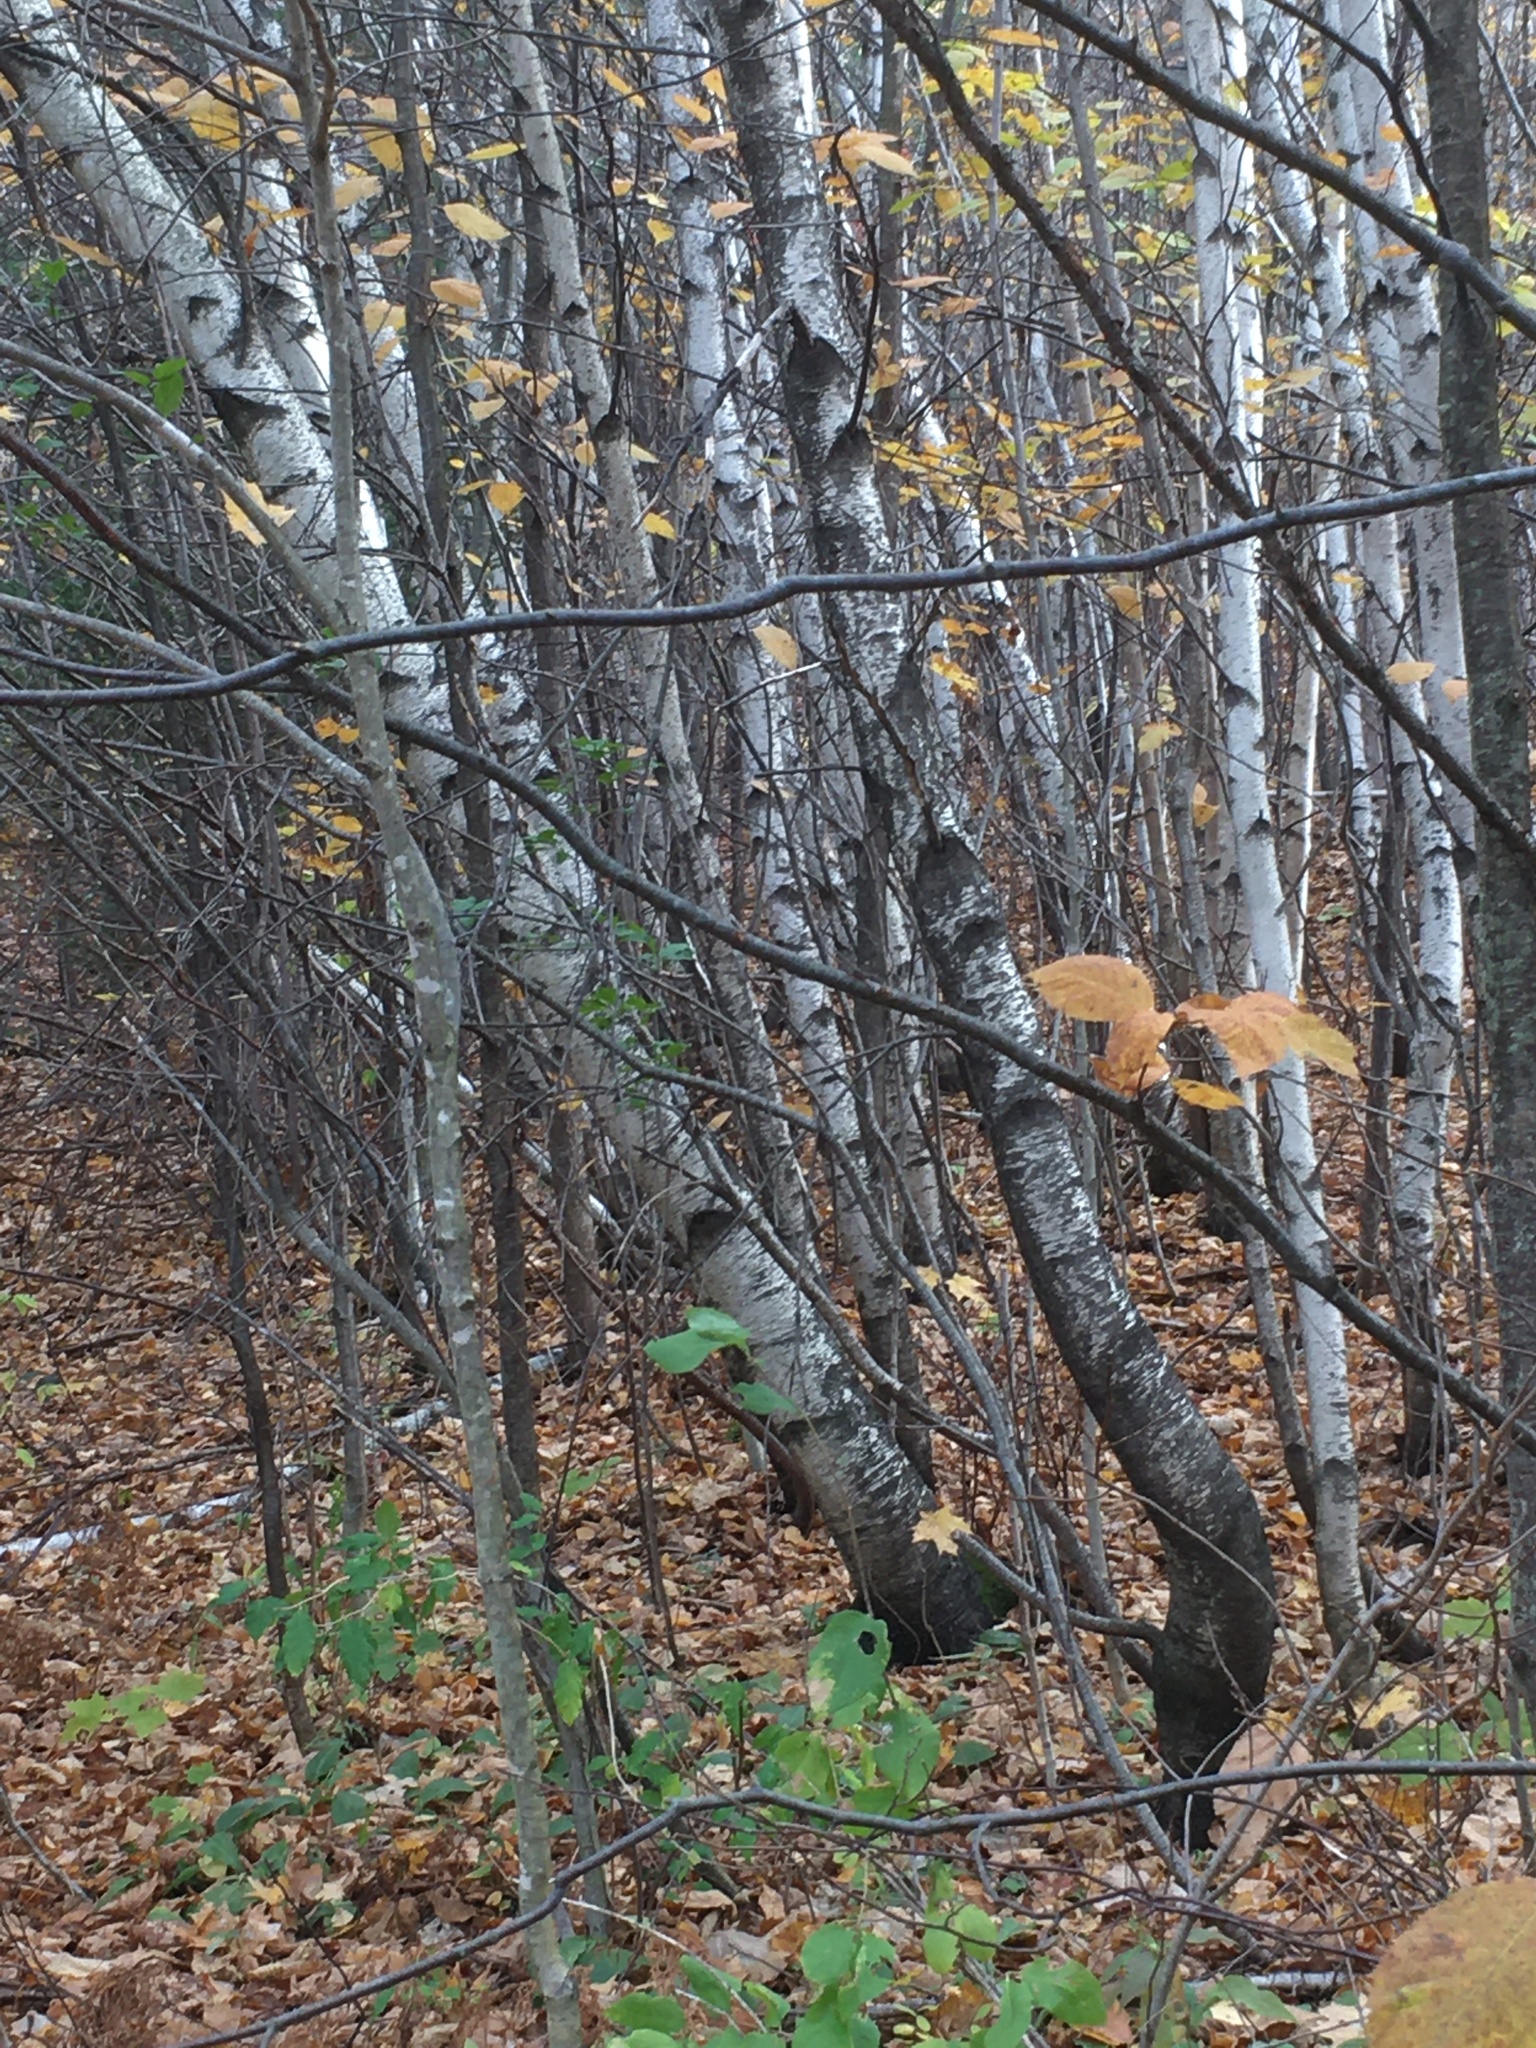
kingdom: Plantae
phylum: Tracheophyta
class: Magnoliopsida
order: Fagales
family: Betulaceae
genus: Betula
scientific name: Betula populifolia
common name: Fire birch
